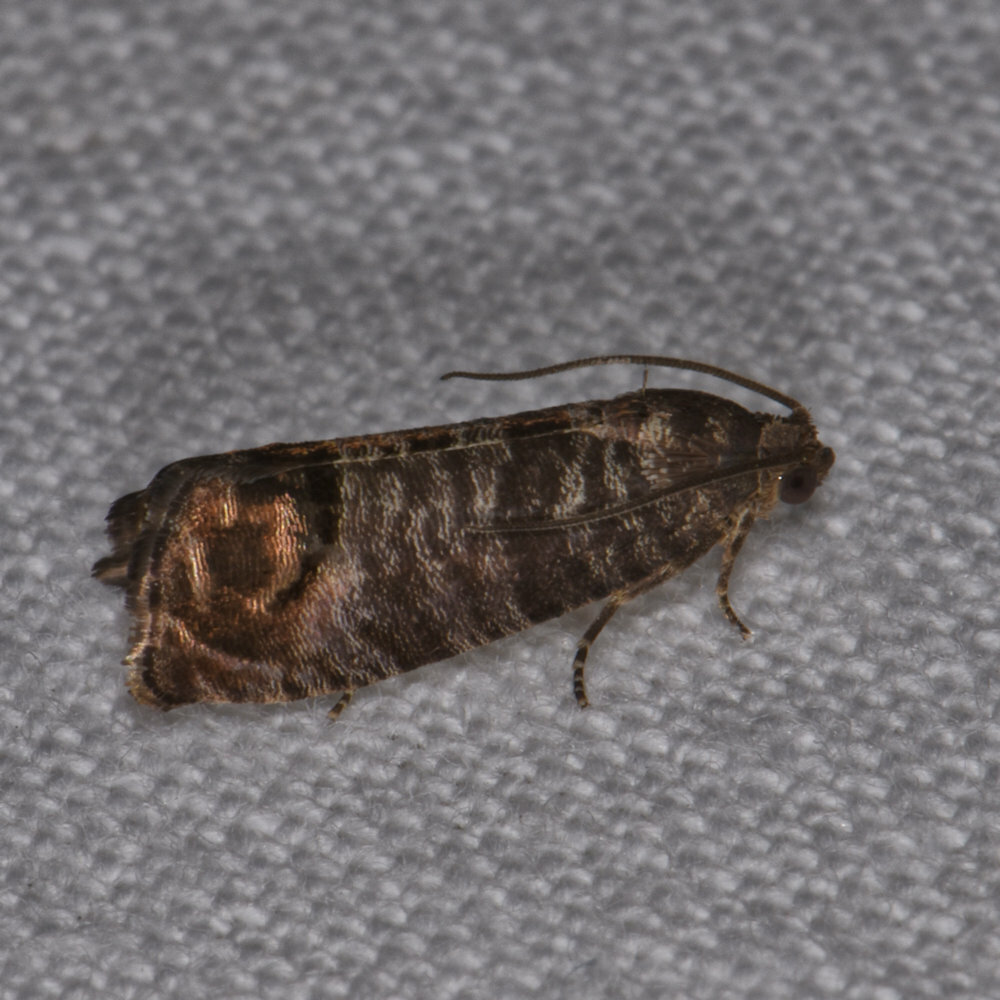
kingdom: Animalia
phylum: Arthropoda
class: Insecta
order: Lepidoptera
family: Tortricidae
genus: Cydia
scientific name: Cydia pomonella
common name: Codling moth
